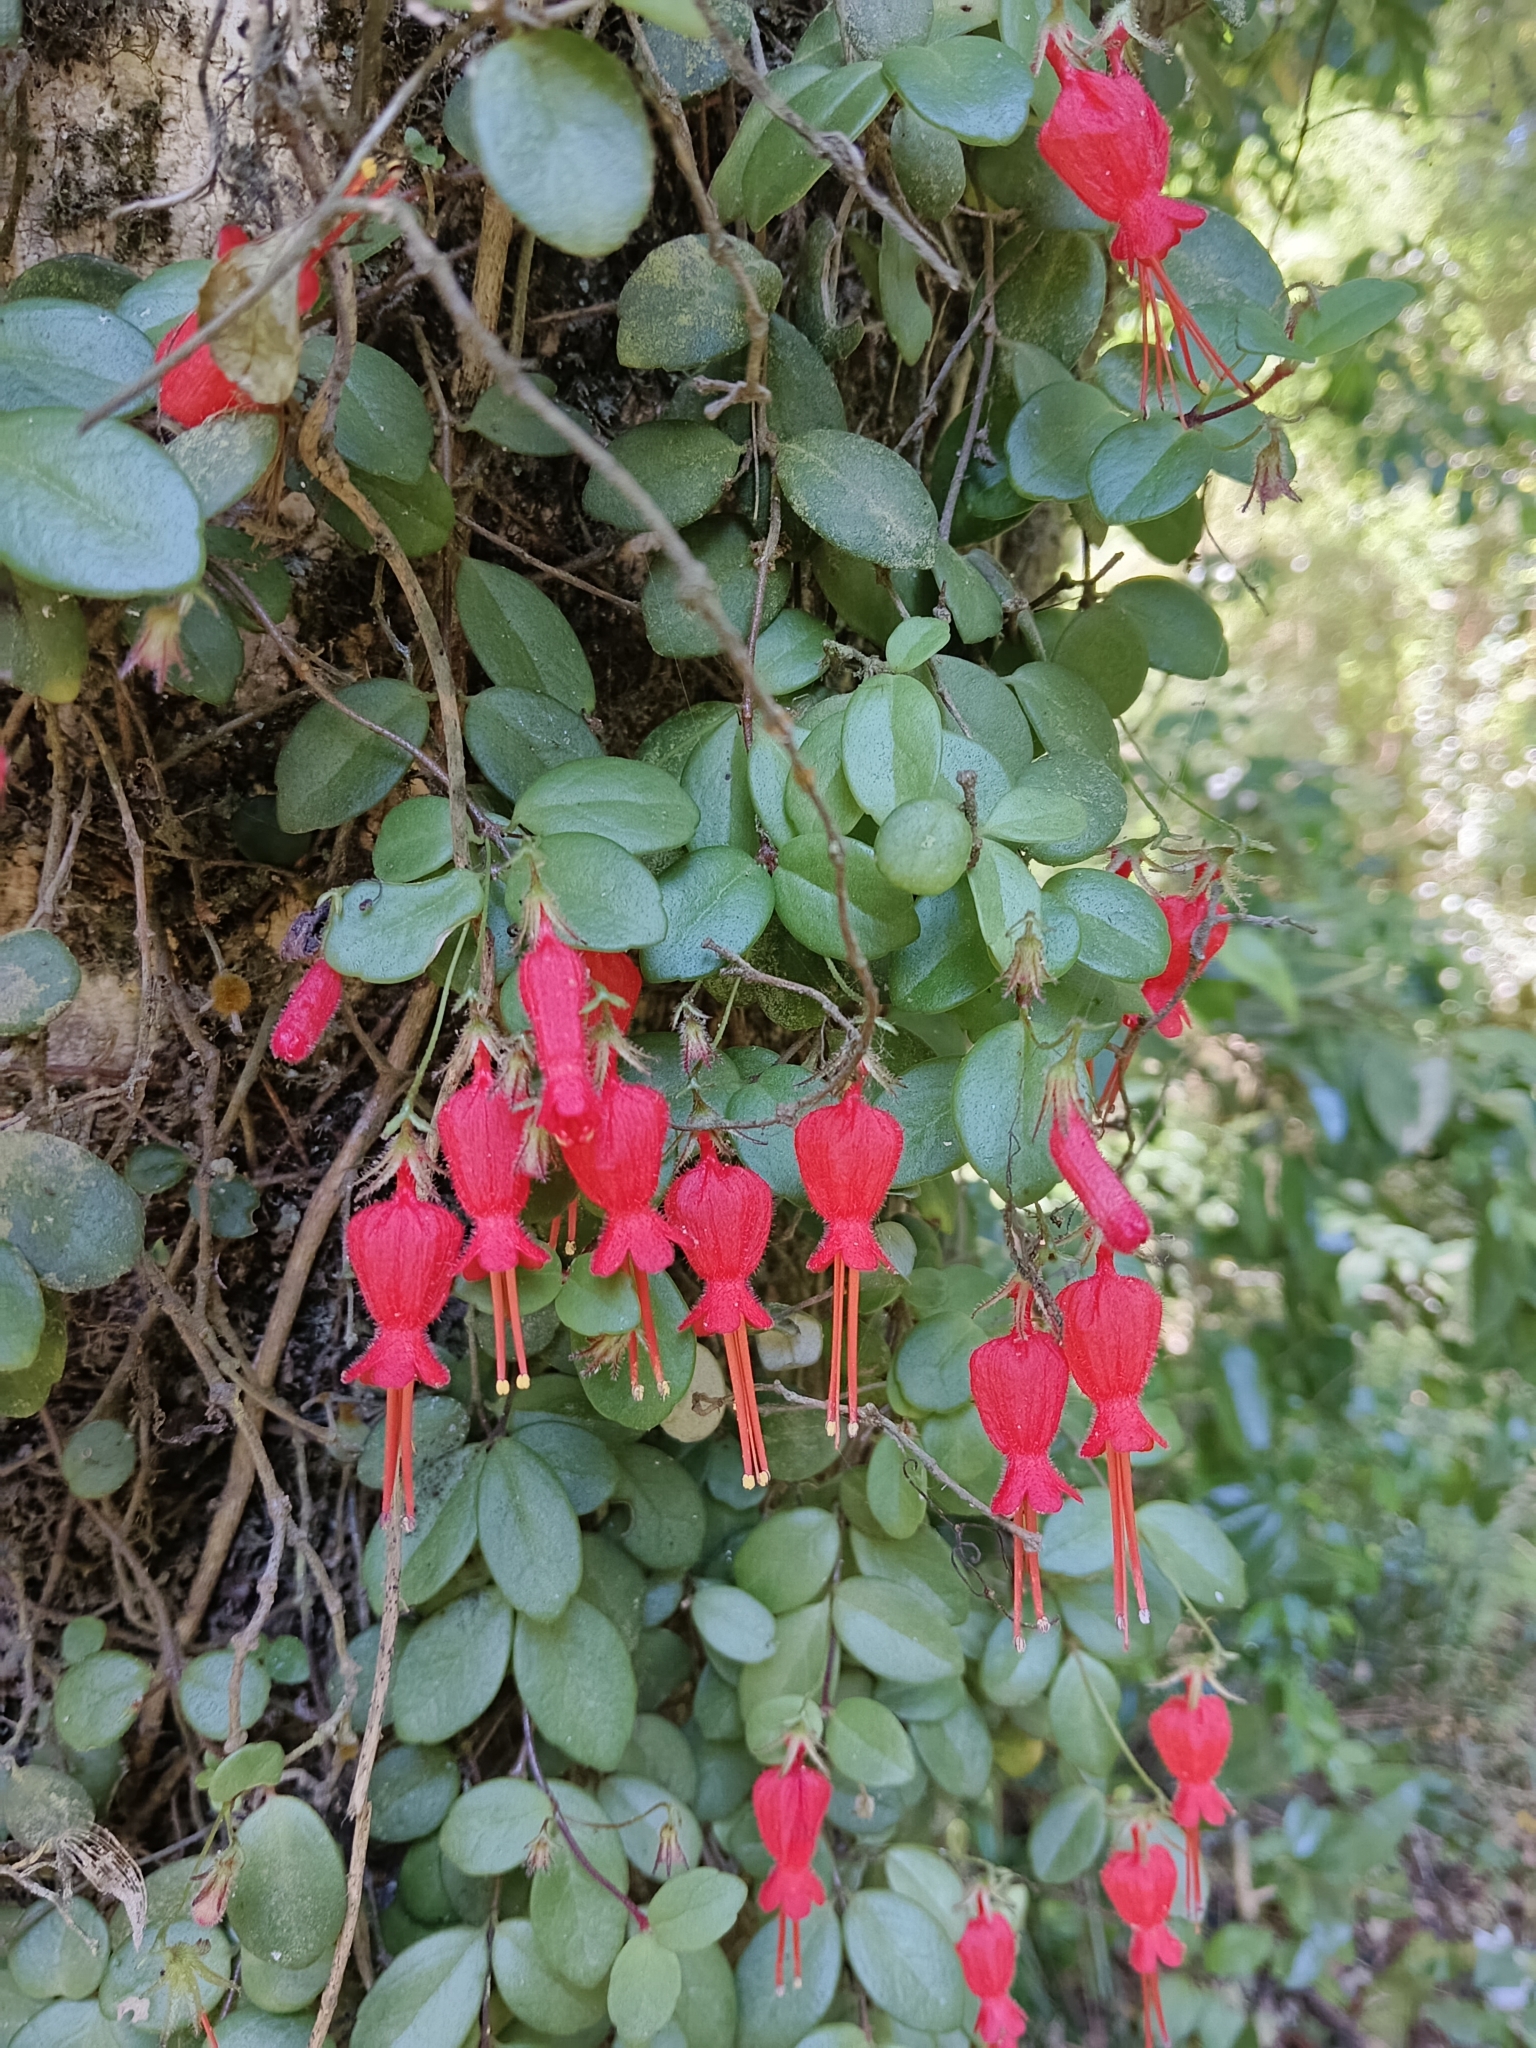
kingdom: Plantae
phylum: Tracheophyta
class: Magnoliopsida
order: Lamiales
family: Gesneriaceae
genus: Sarmienta
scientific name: Sarmienta scandens
